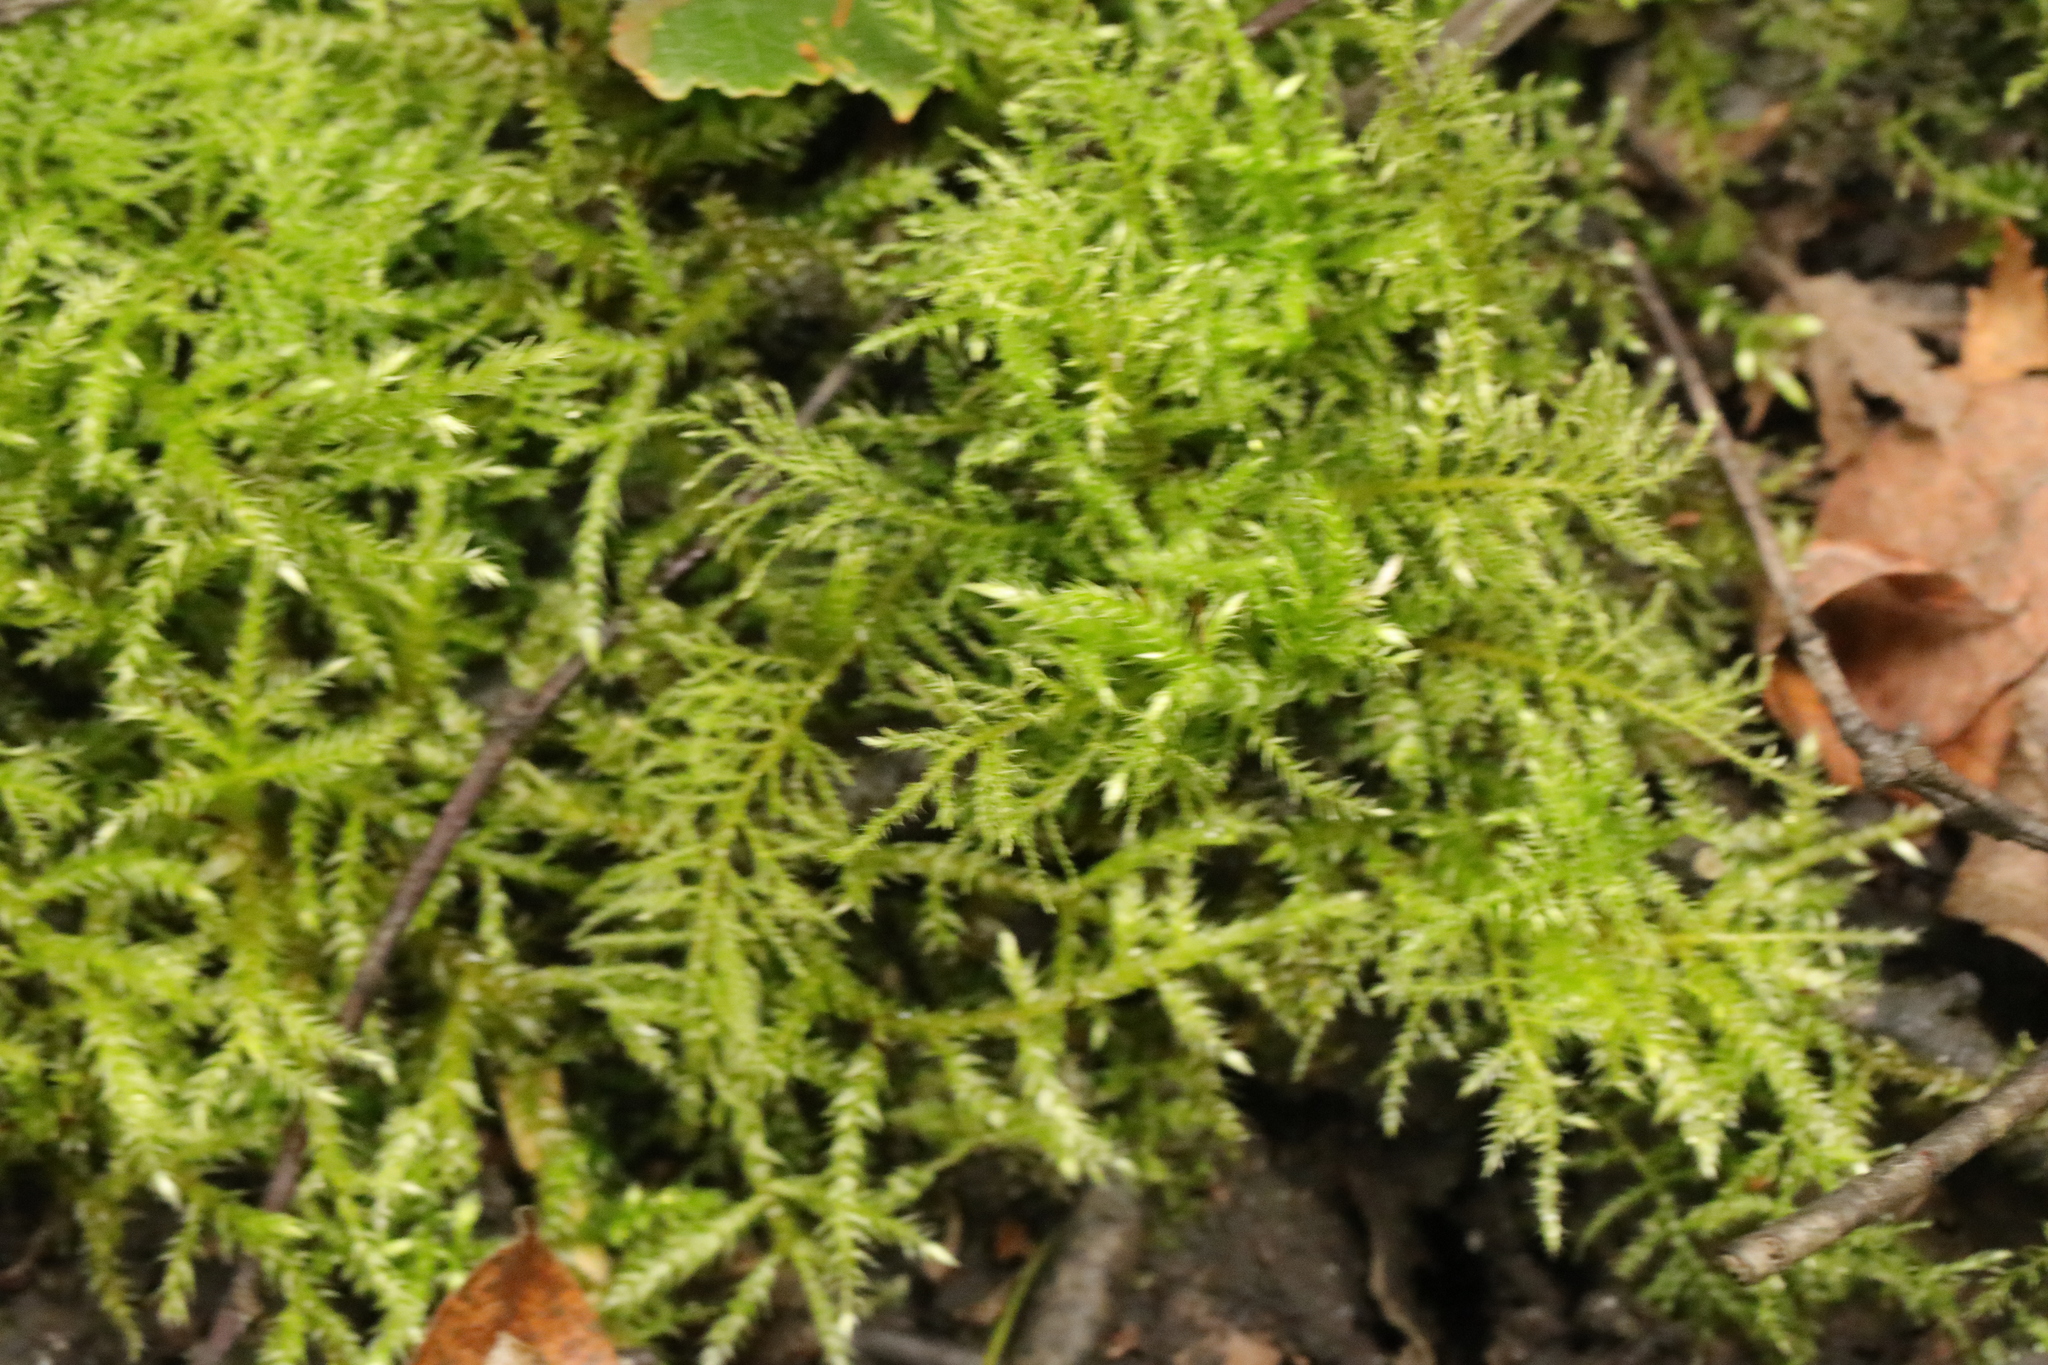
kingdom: Plantae
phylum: Bryophyta
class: Bryopsida
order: Hypnales
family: Brachytheciaceae
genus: Kindbergia
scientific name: Kindbergia praelonga
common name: Slender beaked moss
